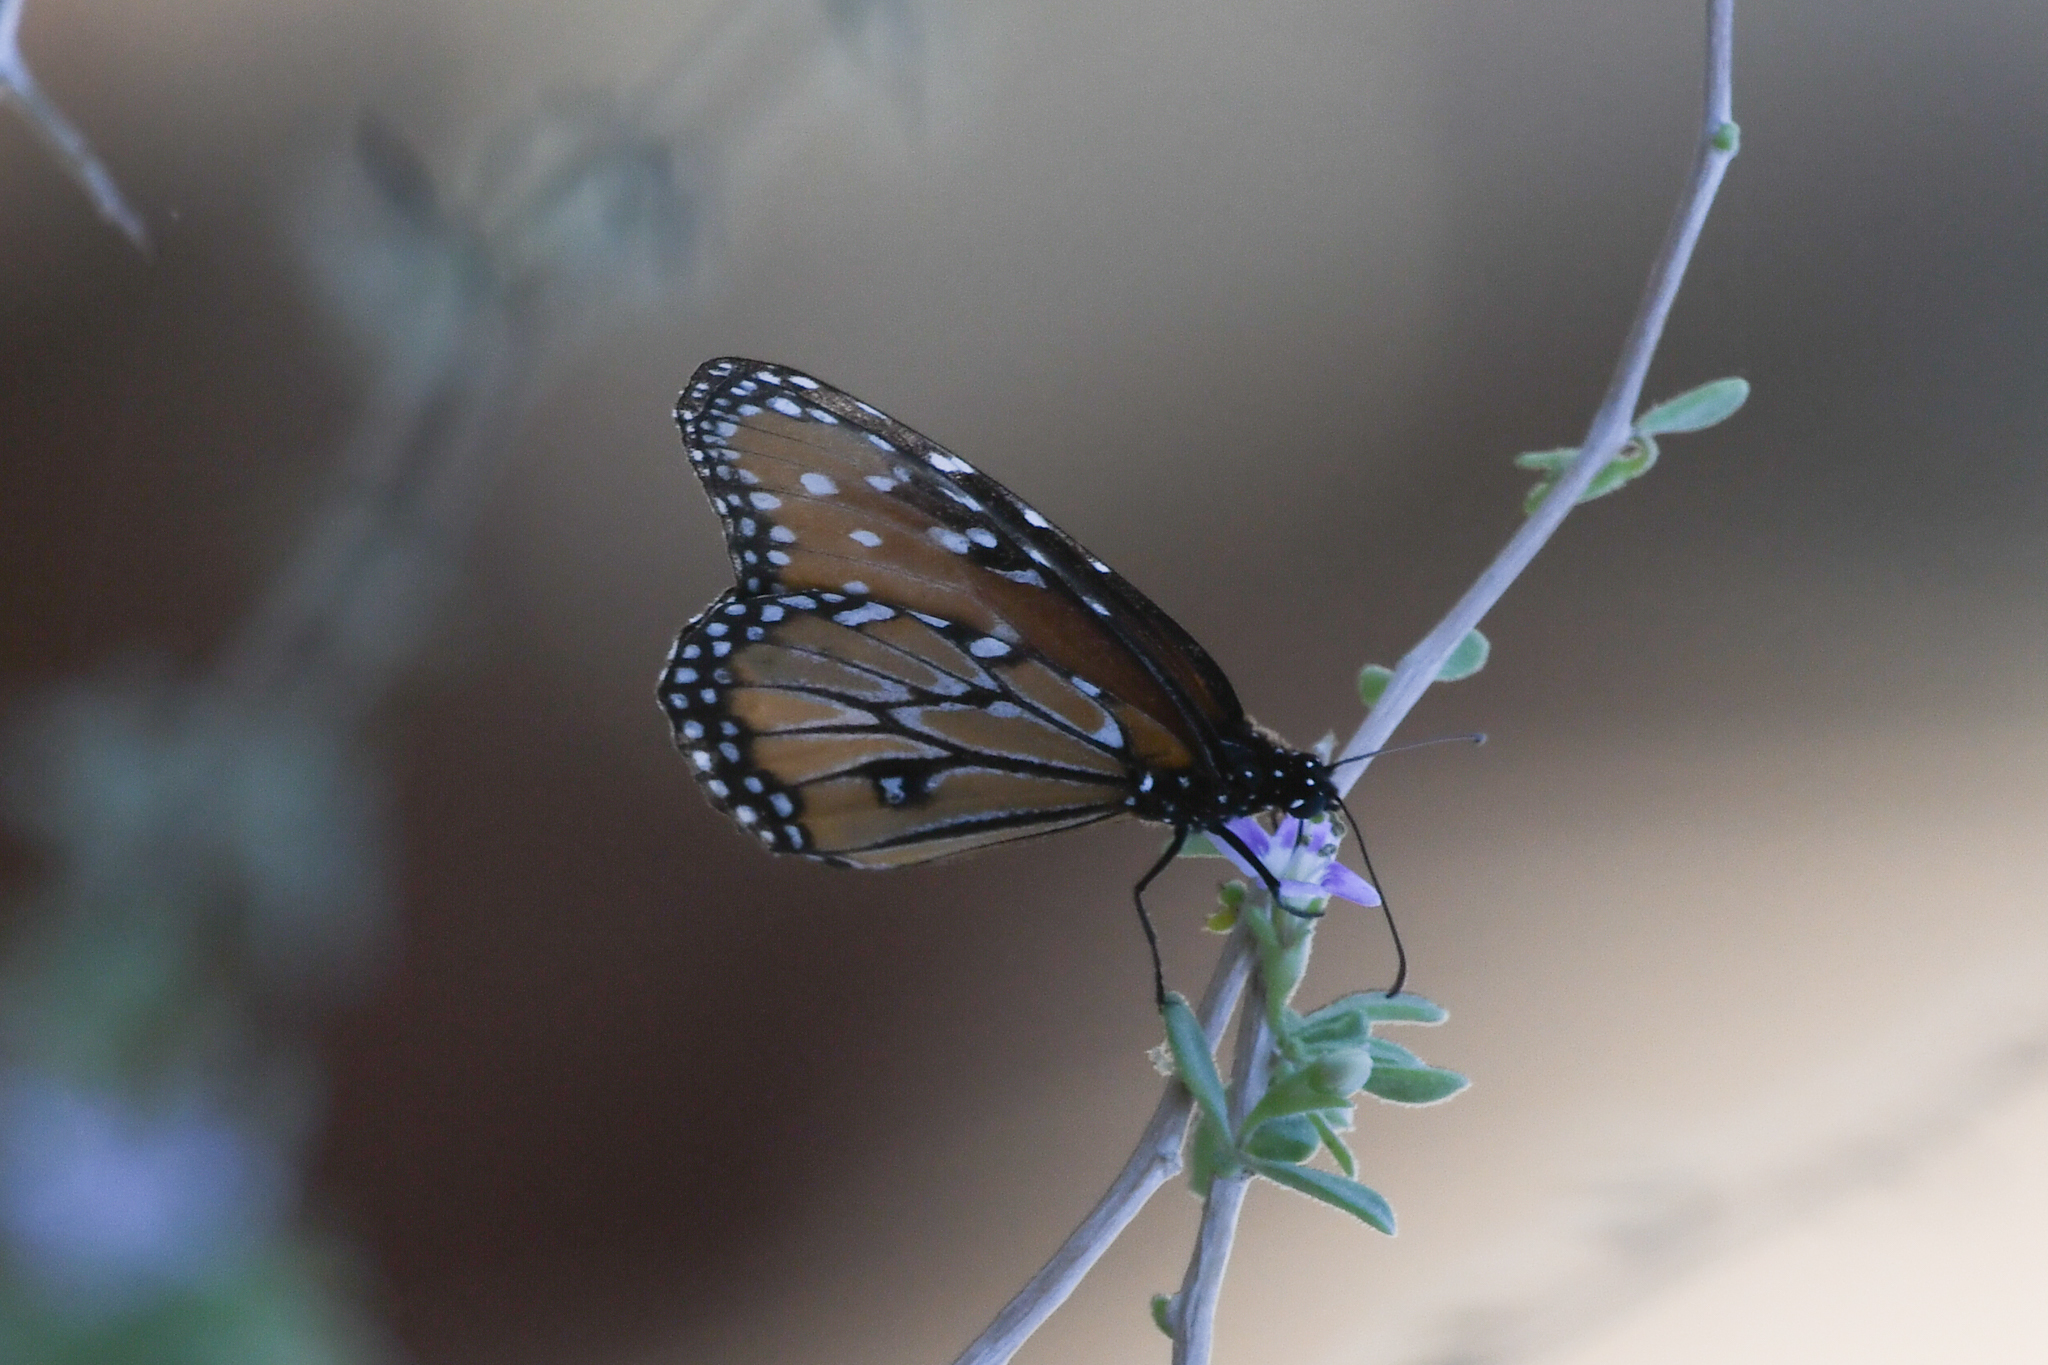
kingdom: Animalia
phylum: Arthropoda
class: Insecta
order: Lepidoptera
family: Nymphalidae
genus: Danaus
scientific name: Danaus gilippus
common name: Queen
